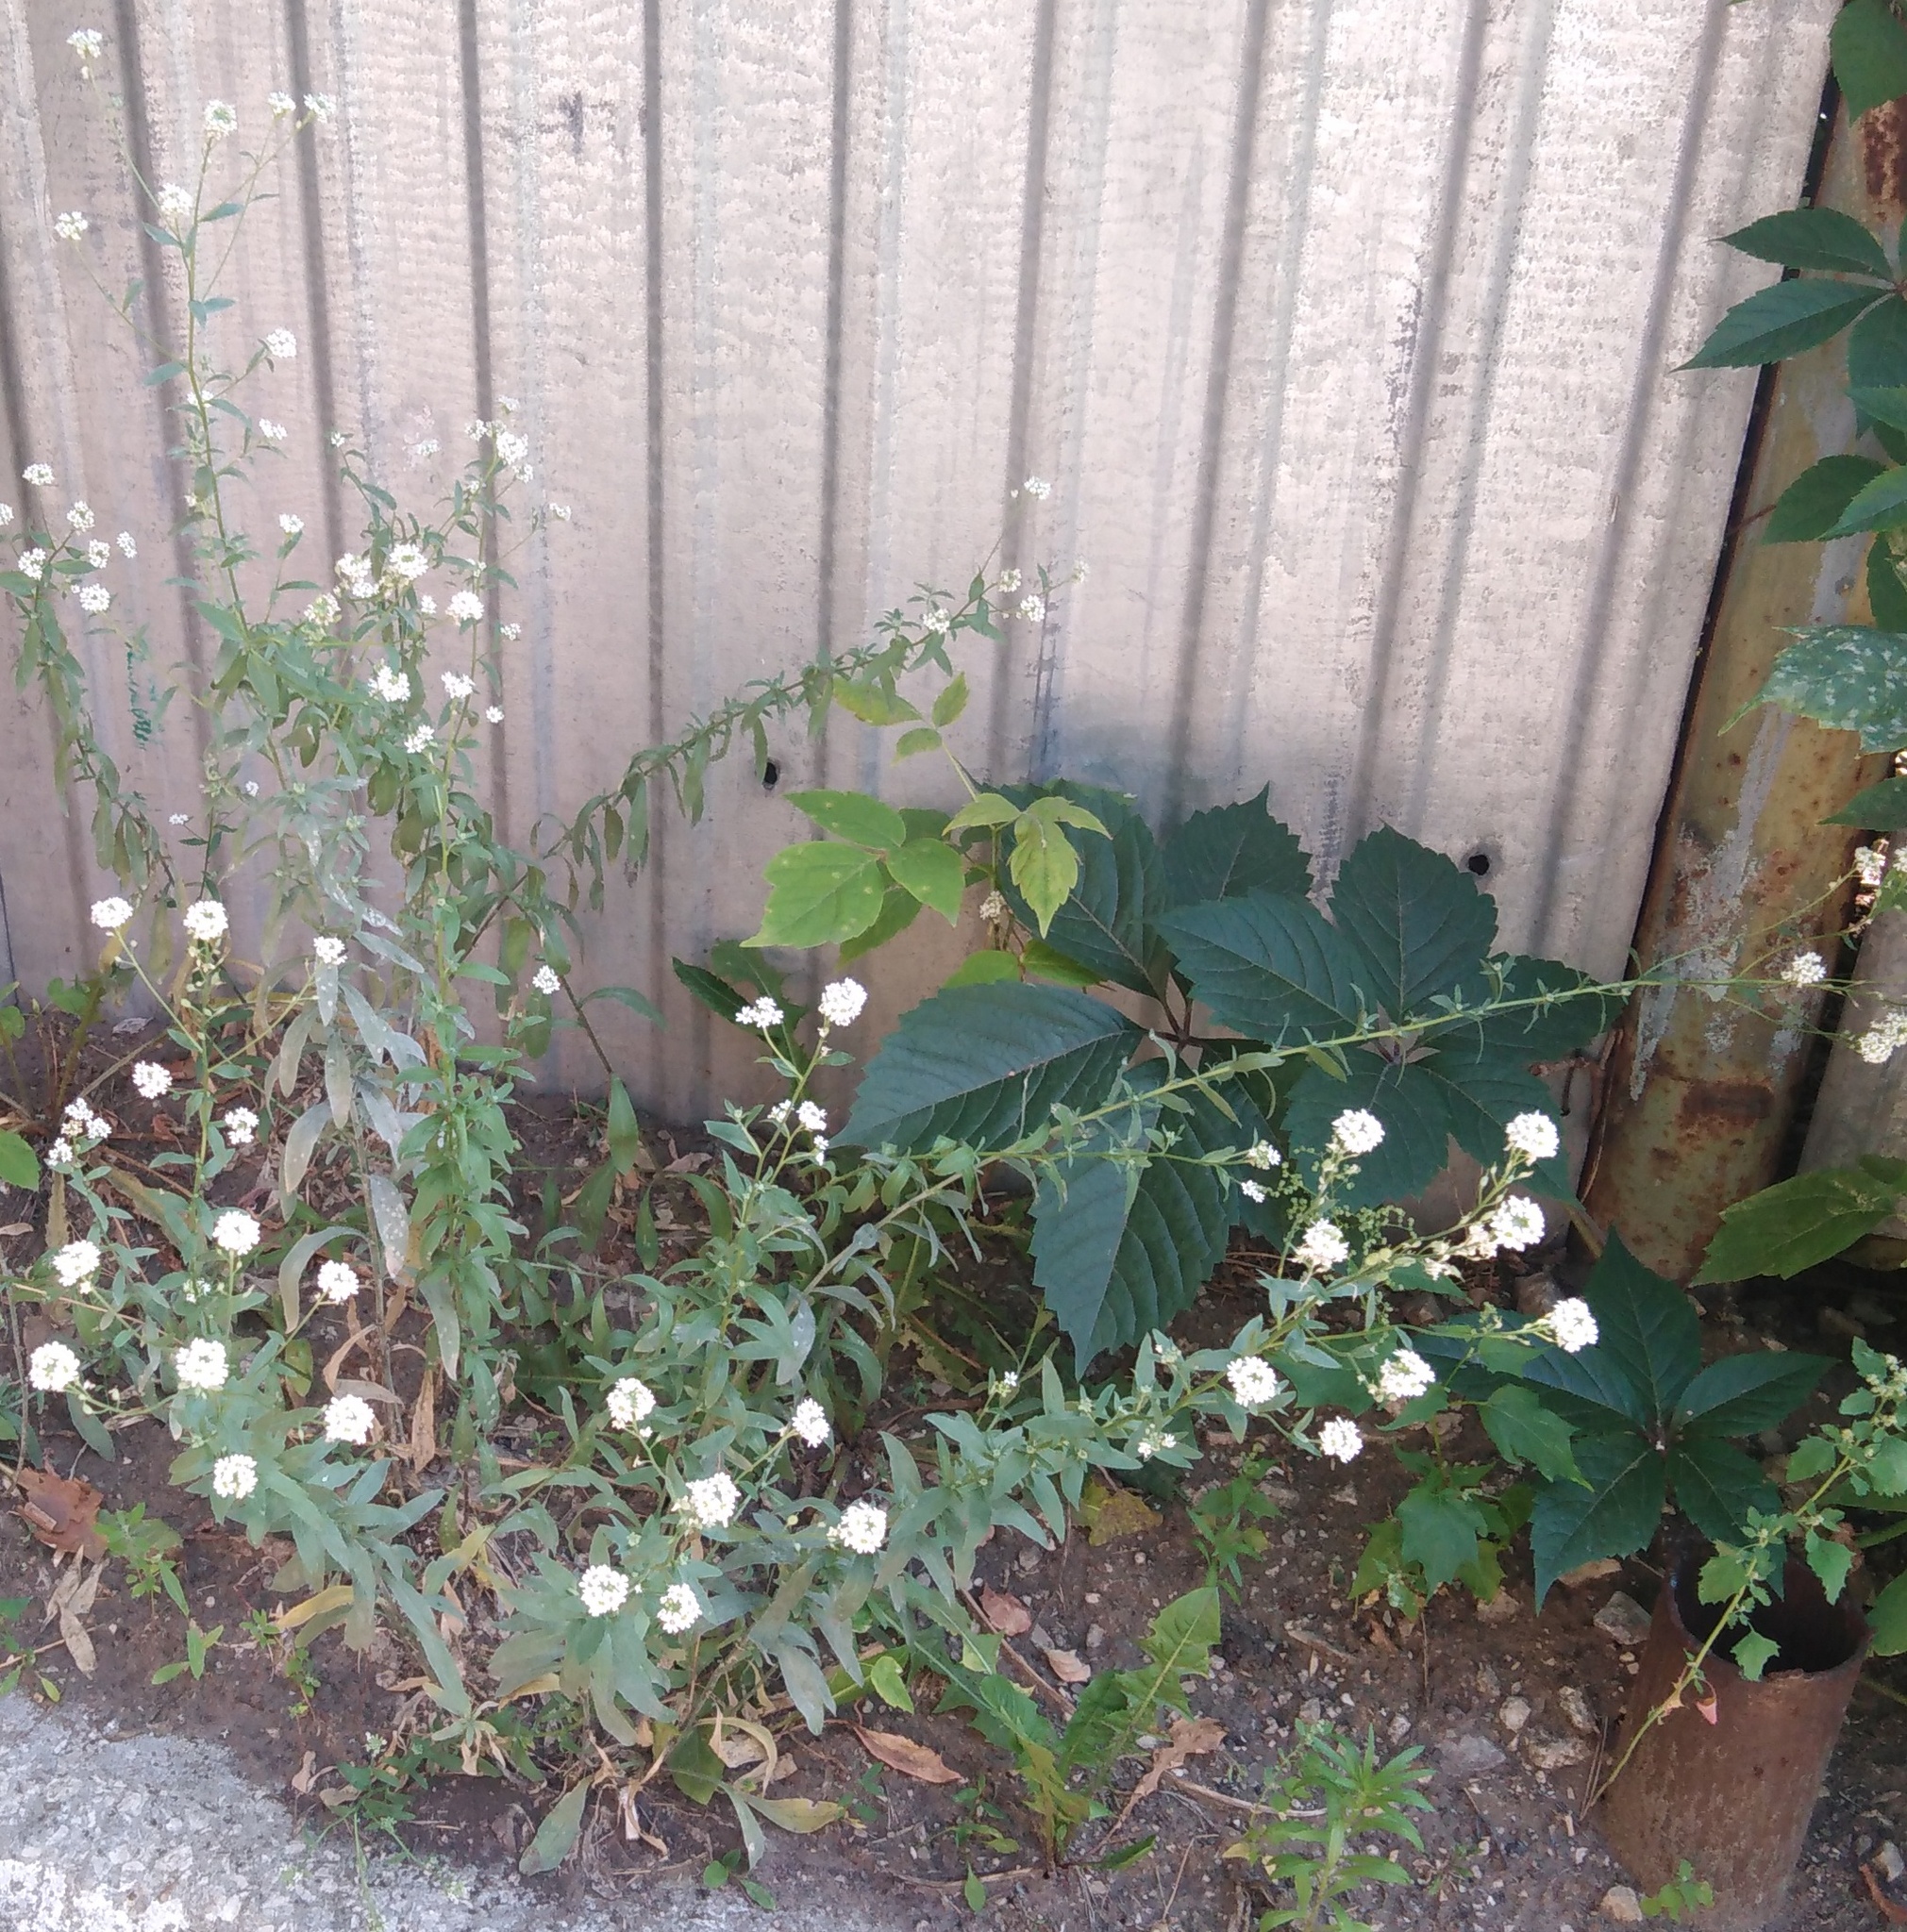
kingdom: Plantae
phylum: Tracheophyta
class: Magnoliopsida
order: Brassicales
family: Brassicaceae
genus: Berteroa
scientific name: Berteroa incana
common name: Hoary alison
